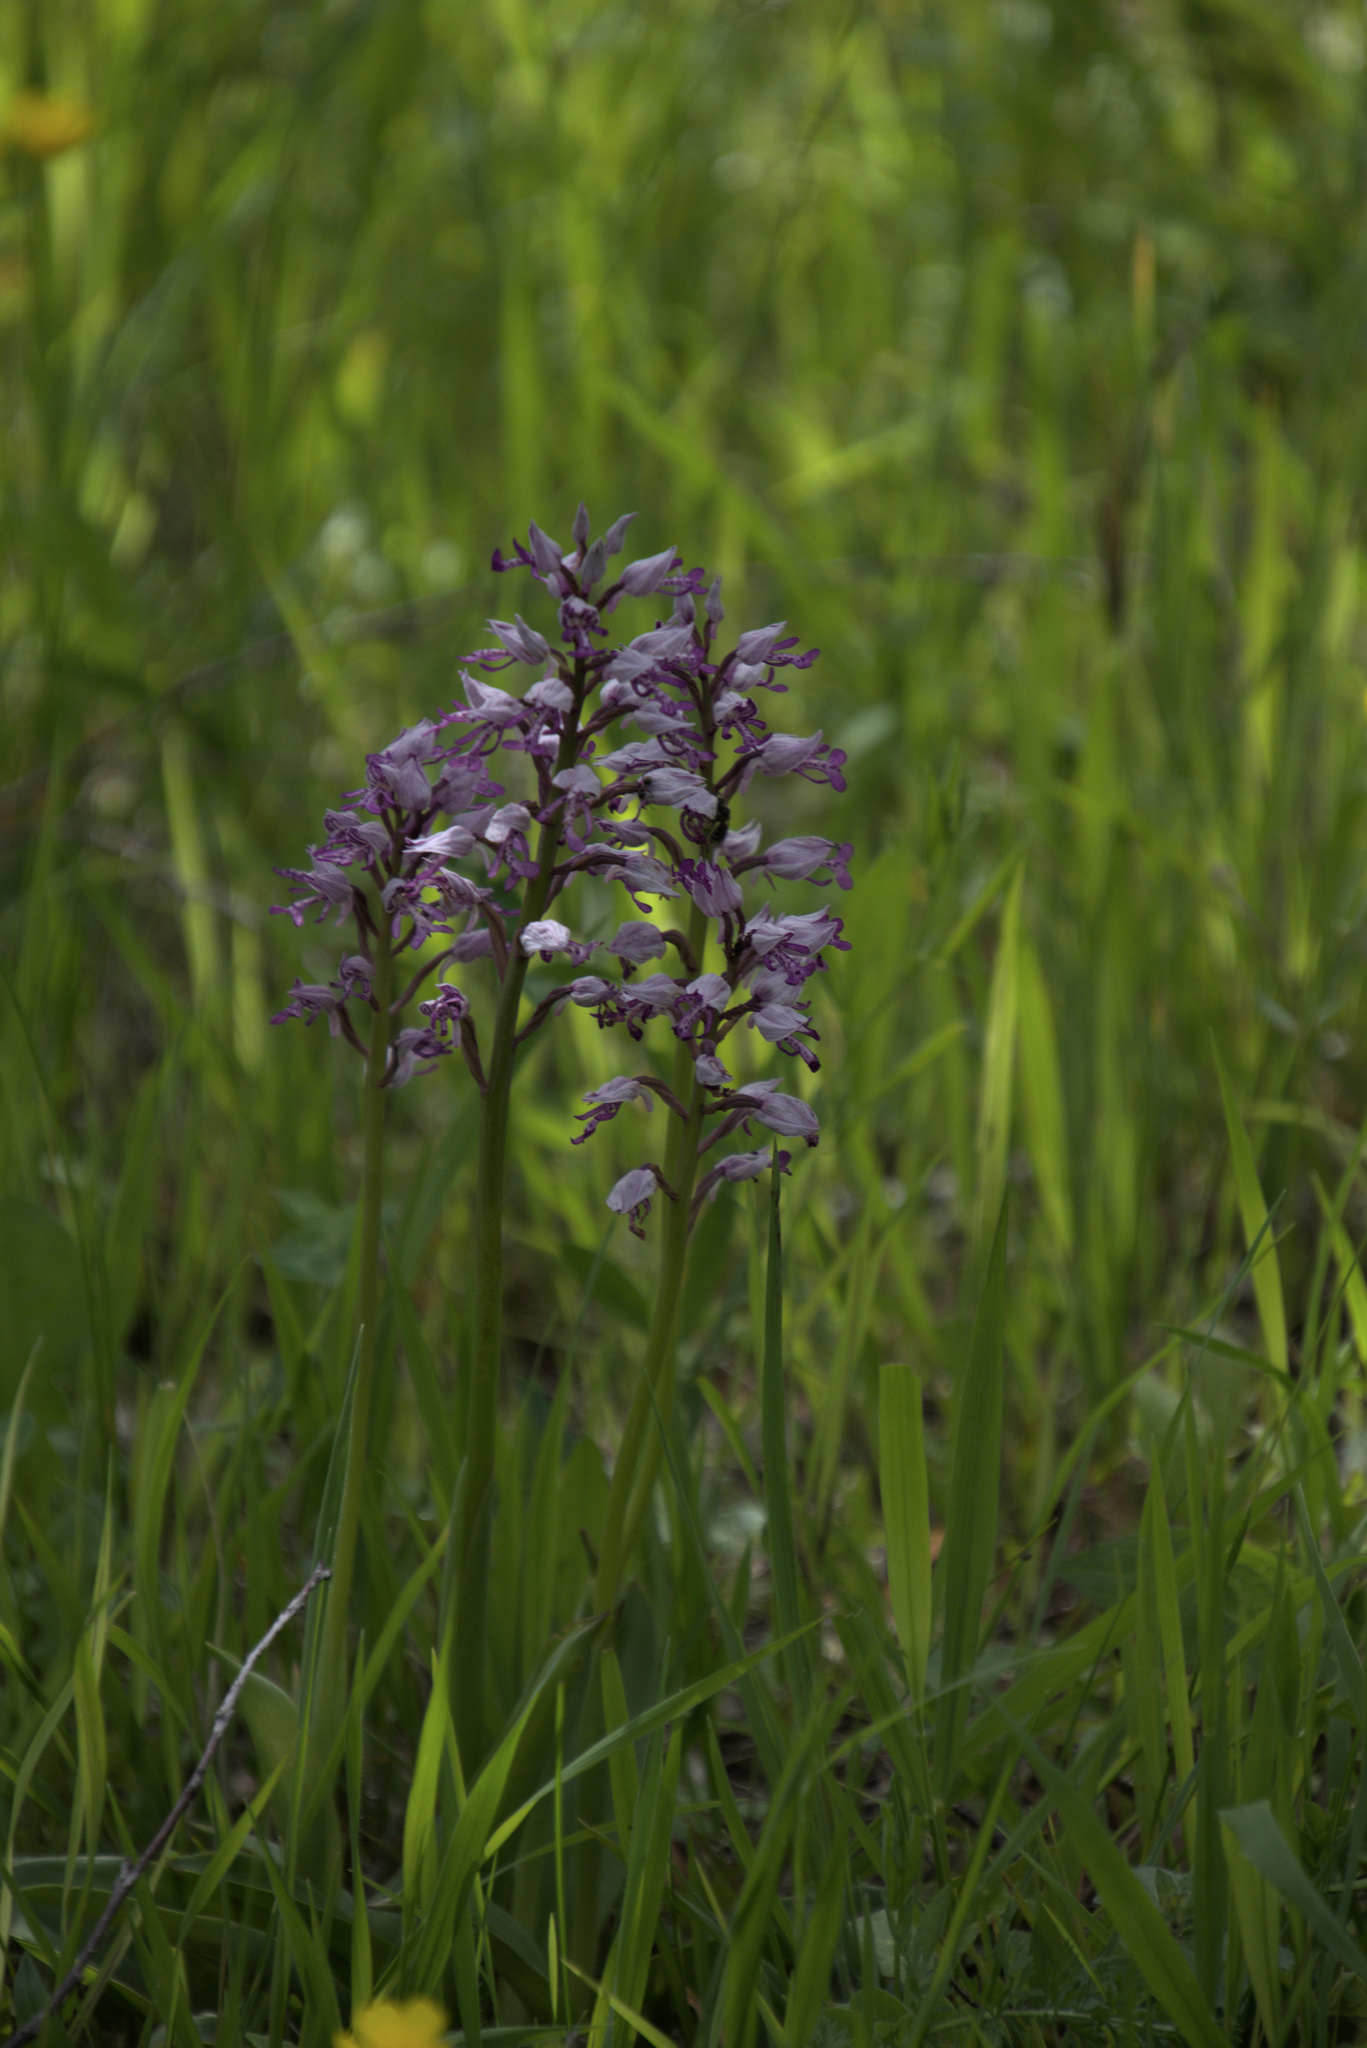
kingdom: Plantae
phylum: Tracheophyta
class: Liliopsida
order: Asparagales
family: Orchidaceae
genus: Orchis
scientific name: Orchis militaris
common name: Military orchid
